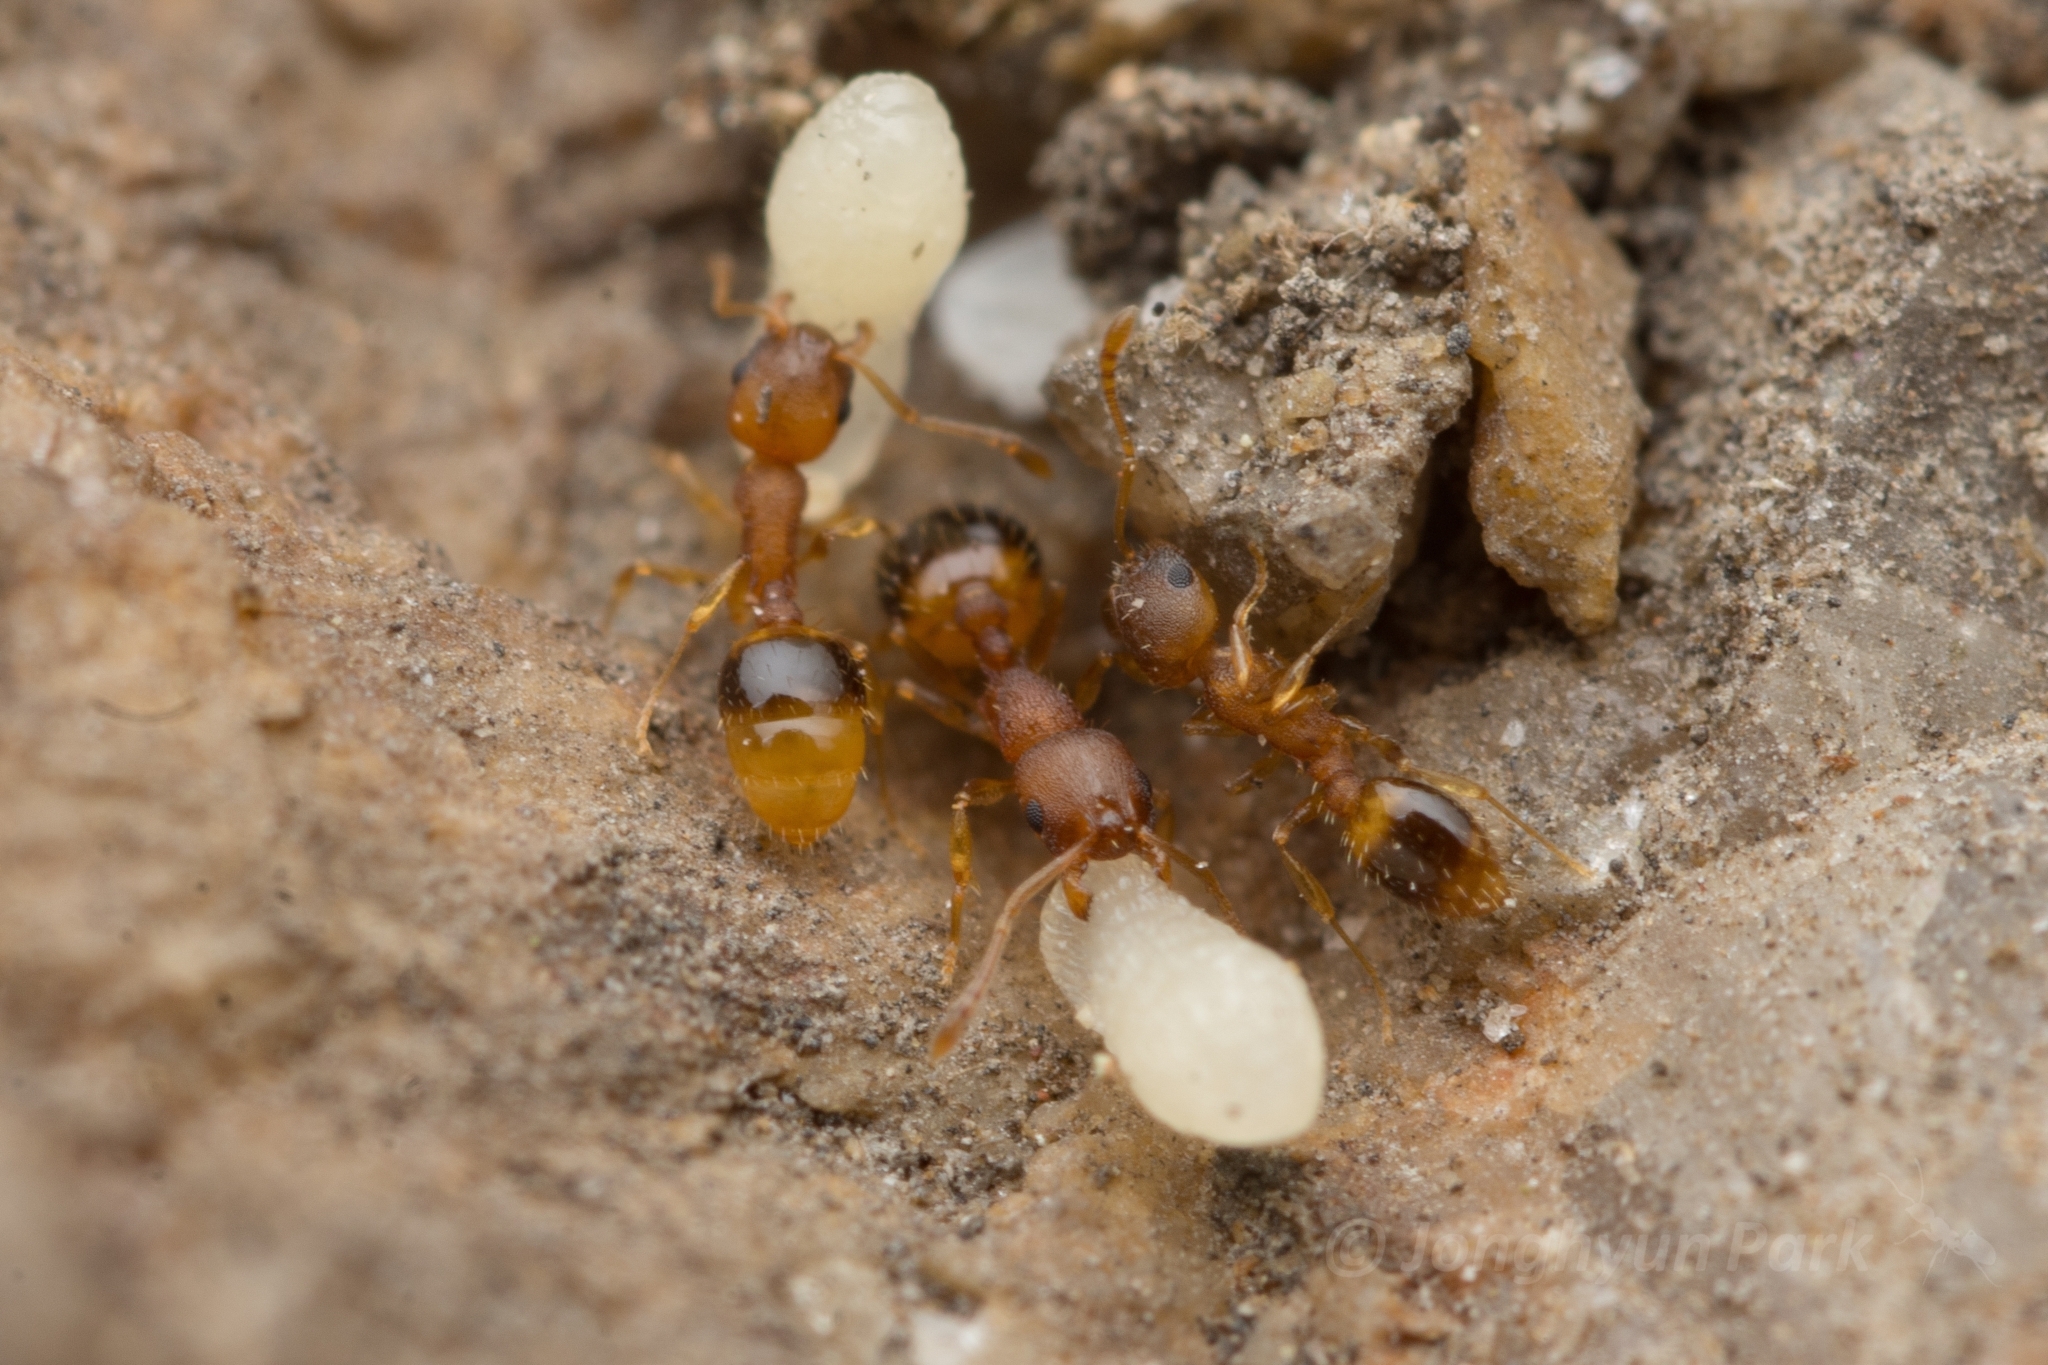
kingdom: Animalia
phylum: Arthropoda
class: Insecta
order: Hymenoptera
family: Formicidae
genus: Temnothorax
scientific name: Temnothorax
